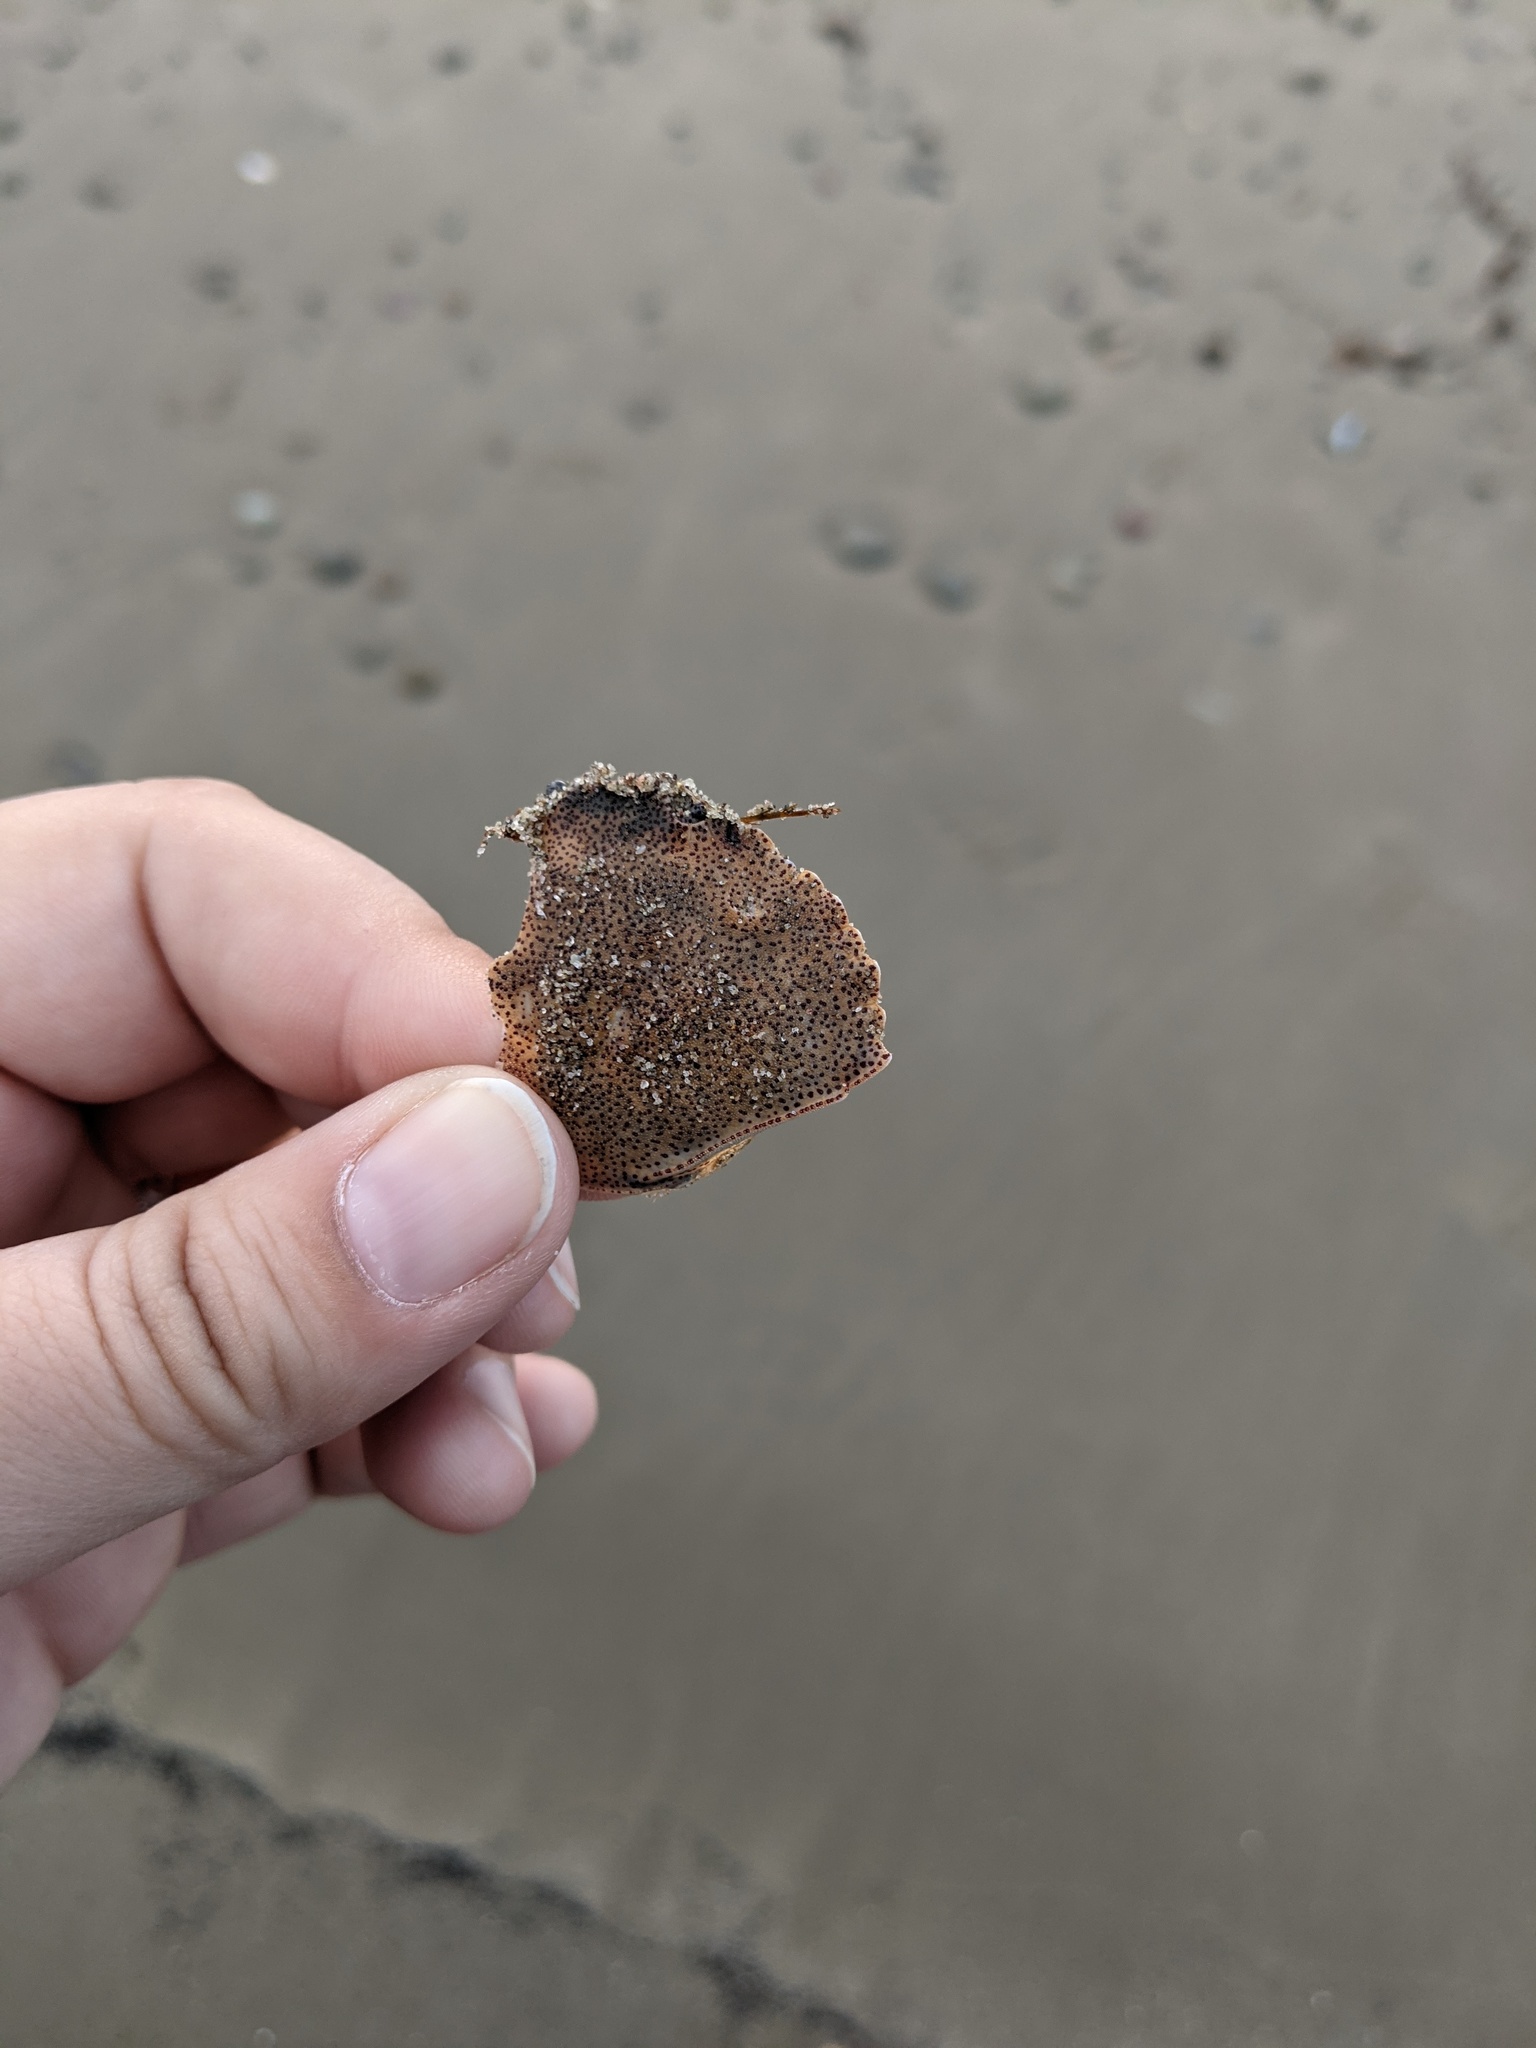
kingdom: Animalia
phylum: Arthropoda
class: Malacostraca
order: Decapoda
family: Cancridae
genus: Cancer
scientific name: Cancer irroratus
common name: Atlantic rock crab
